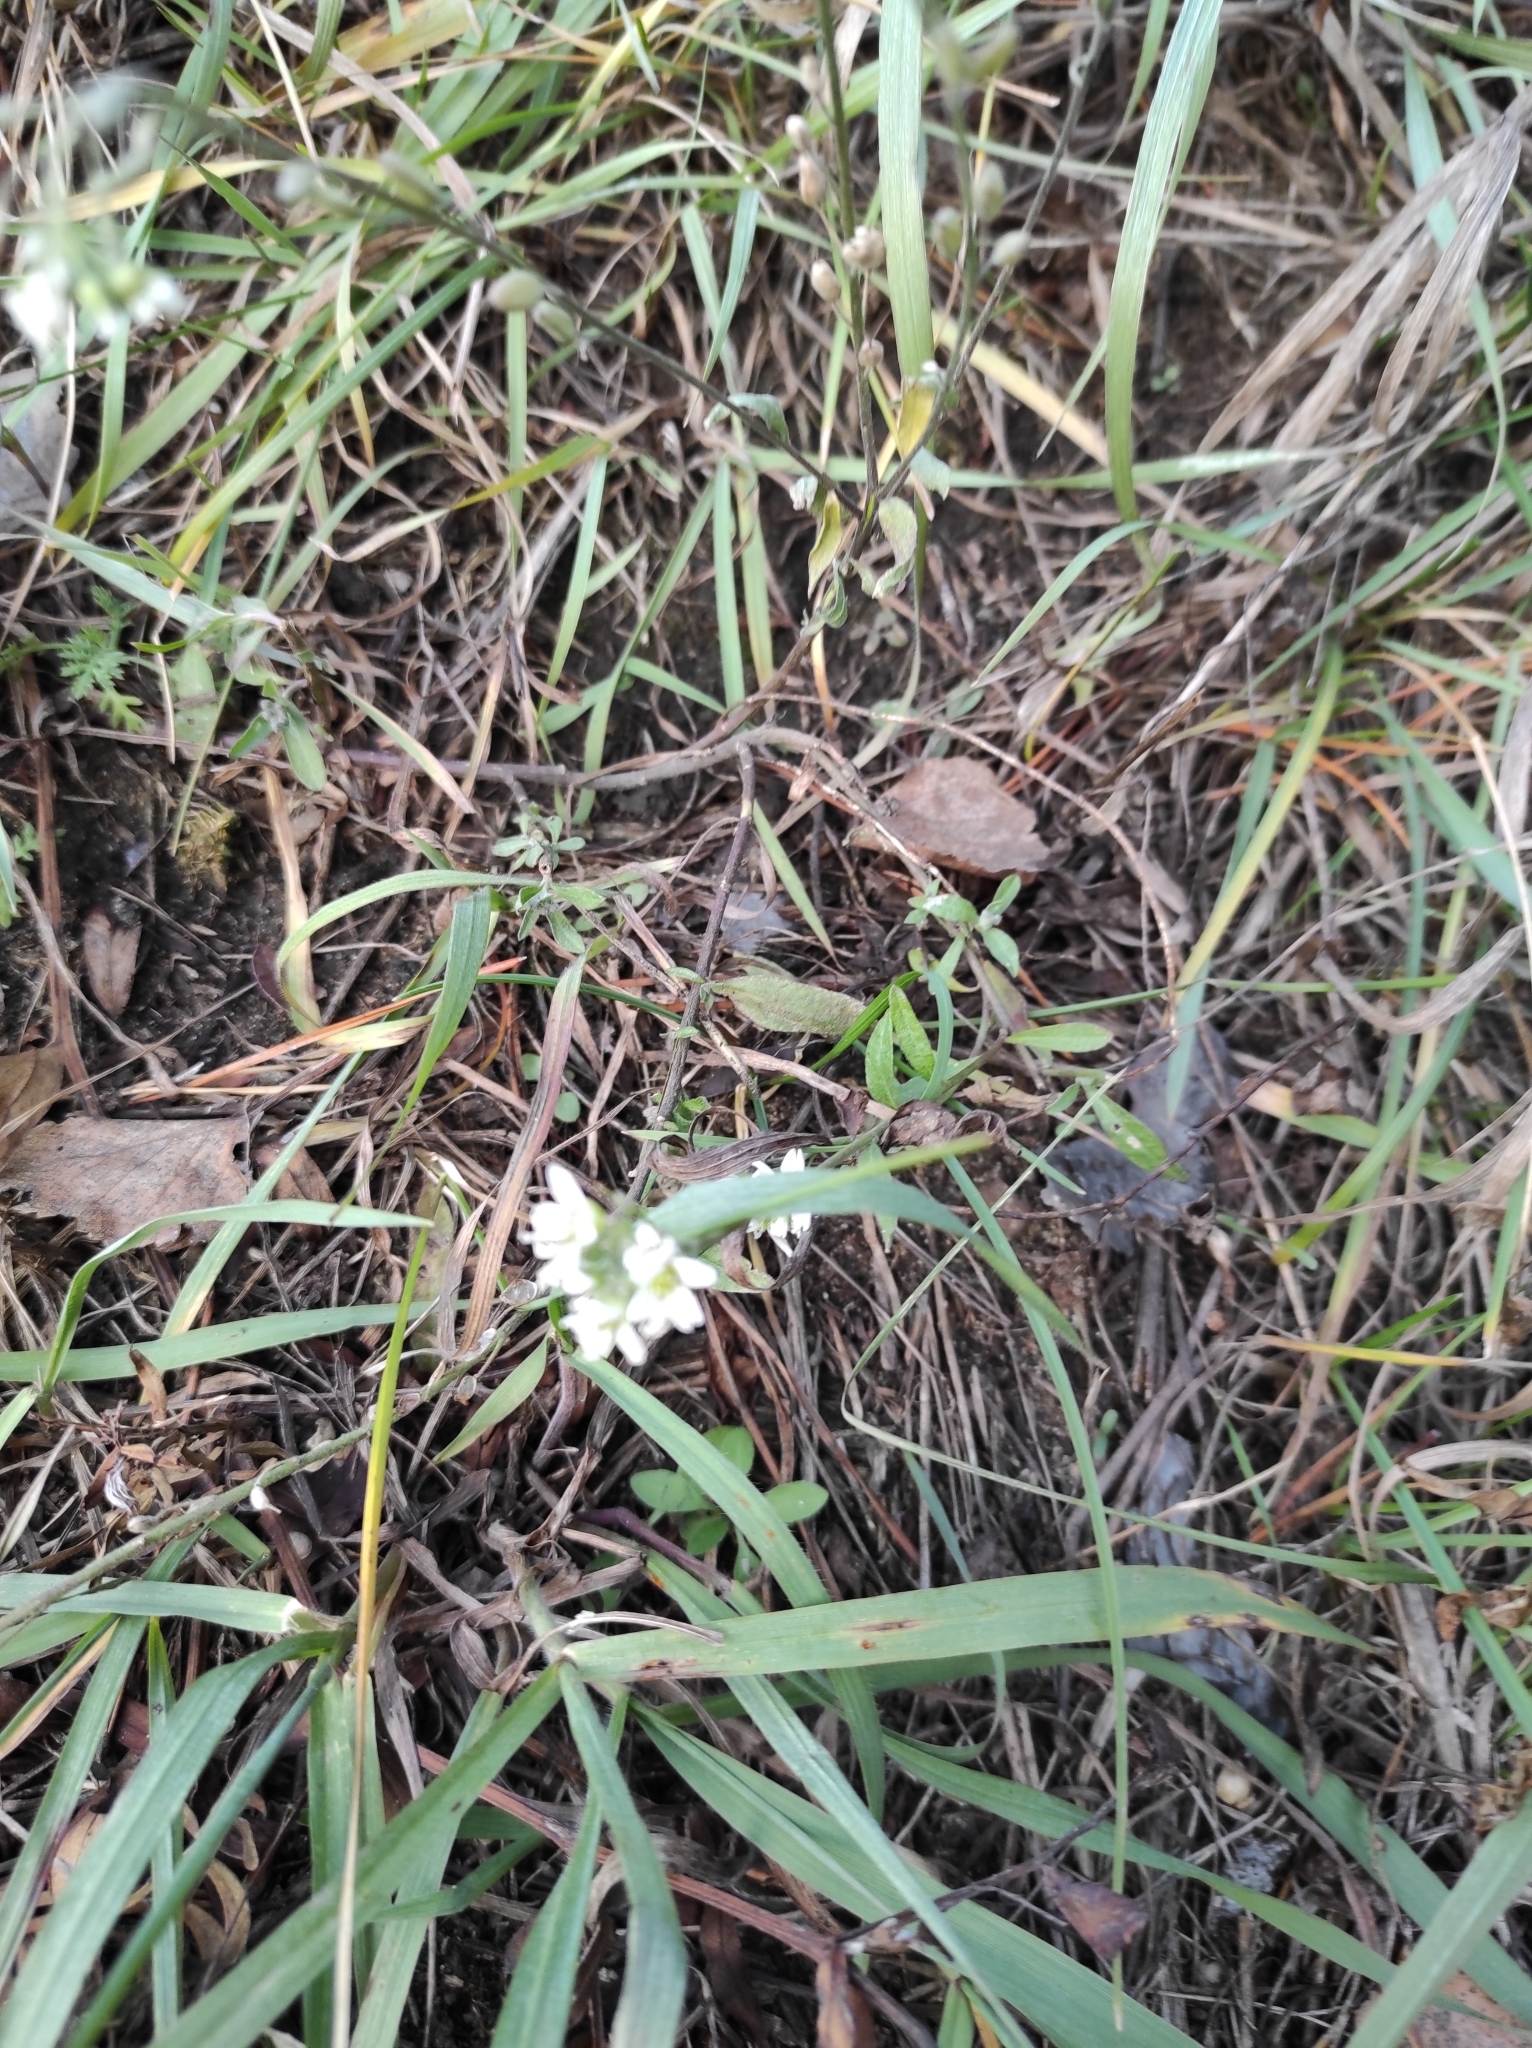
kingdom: Plantae
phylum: Tracheophyta
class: Magnoliopsida
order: Brassicales
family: Brassicaceae
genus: Berteroa
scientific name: Berteroa incana
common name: Hoary alison
